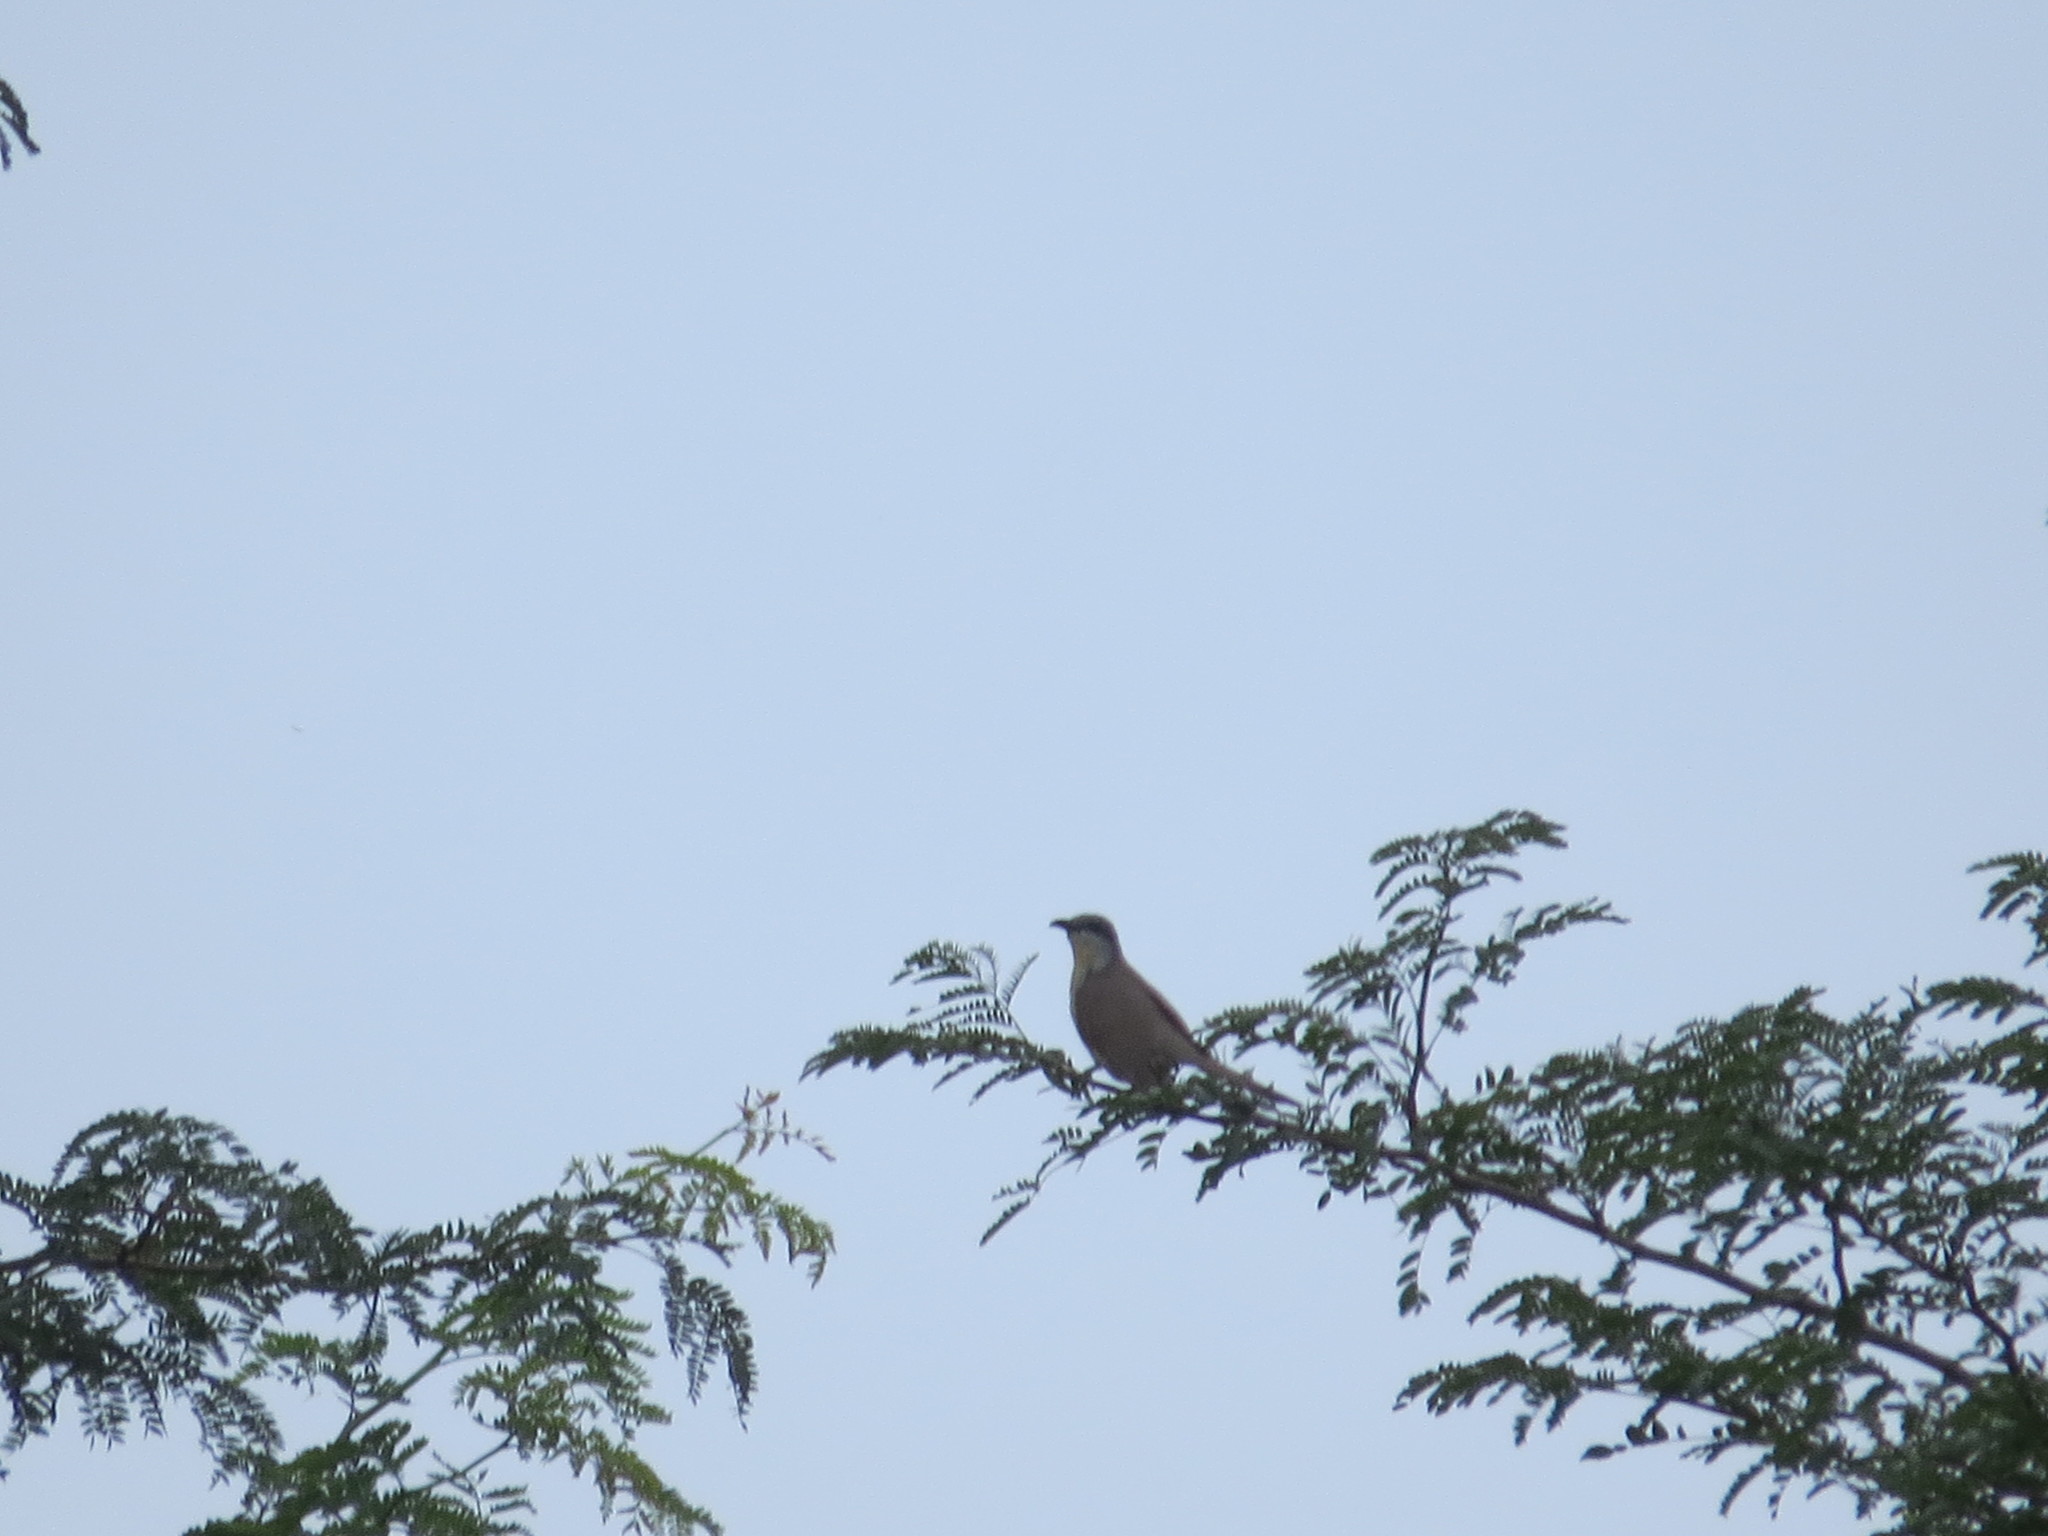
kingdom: Animalia
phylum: Chordata
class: Aves
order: Cuculiformes
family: Cuculidae
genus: Coccyzus
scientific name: Coccyzus melacoryphus
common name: Dark-billed cuckoo
